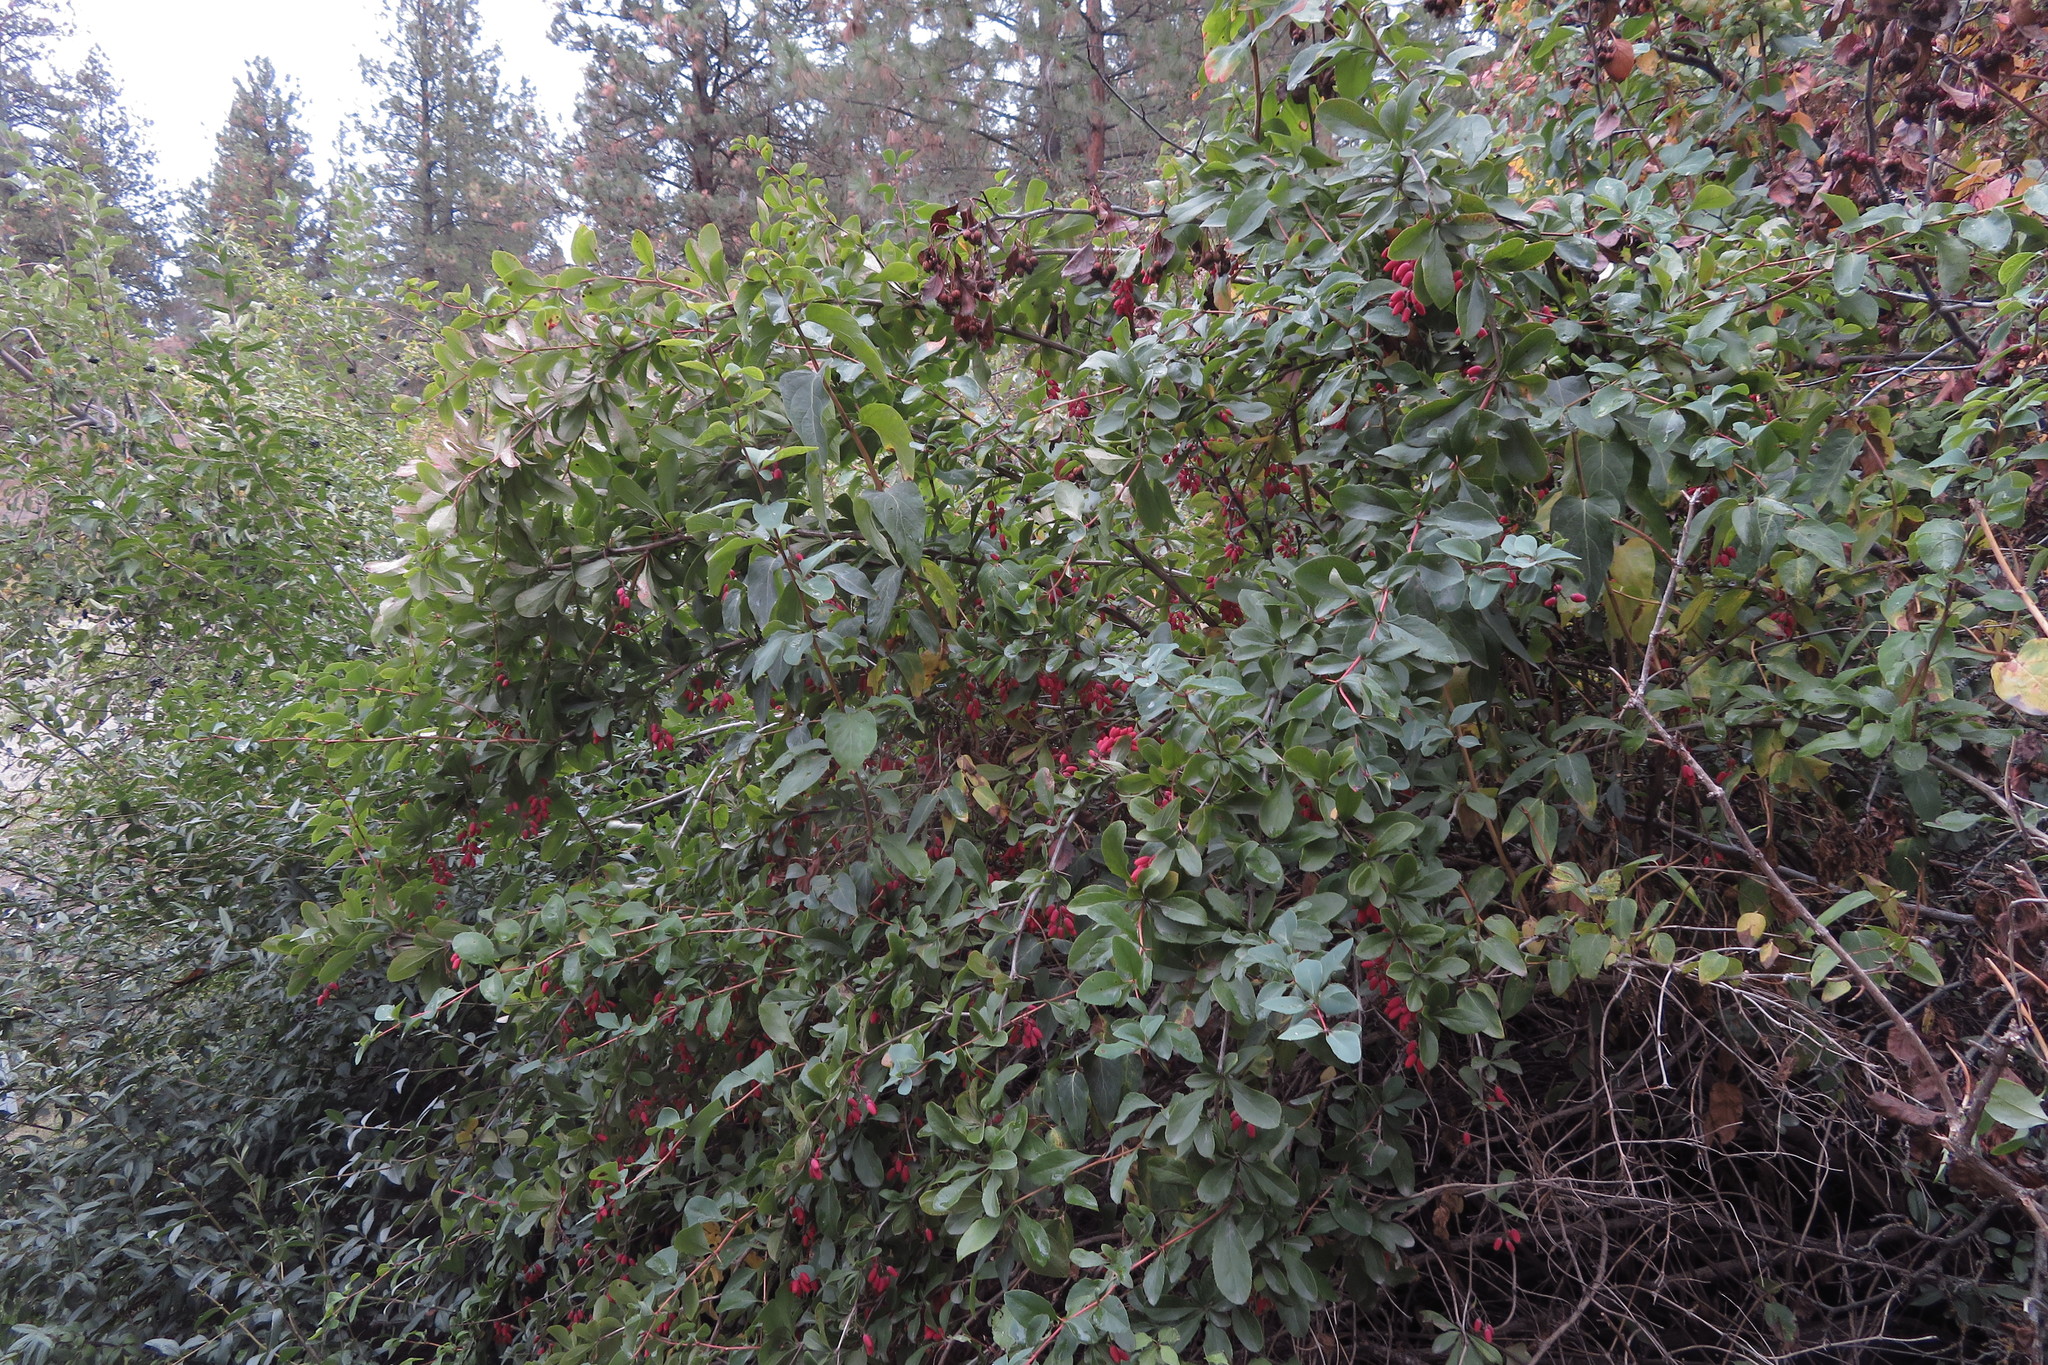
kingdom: Plantae
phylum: Tracheophyta
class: Magnoliopsida
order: Ranunculales
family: Berberidaceae
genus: Berberis
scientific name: Berberis vulgaris
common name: Barberry
